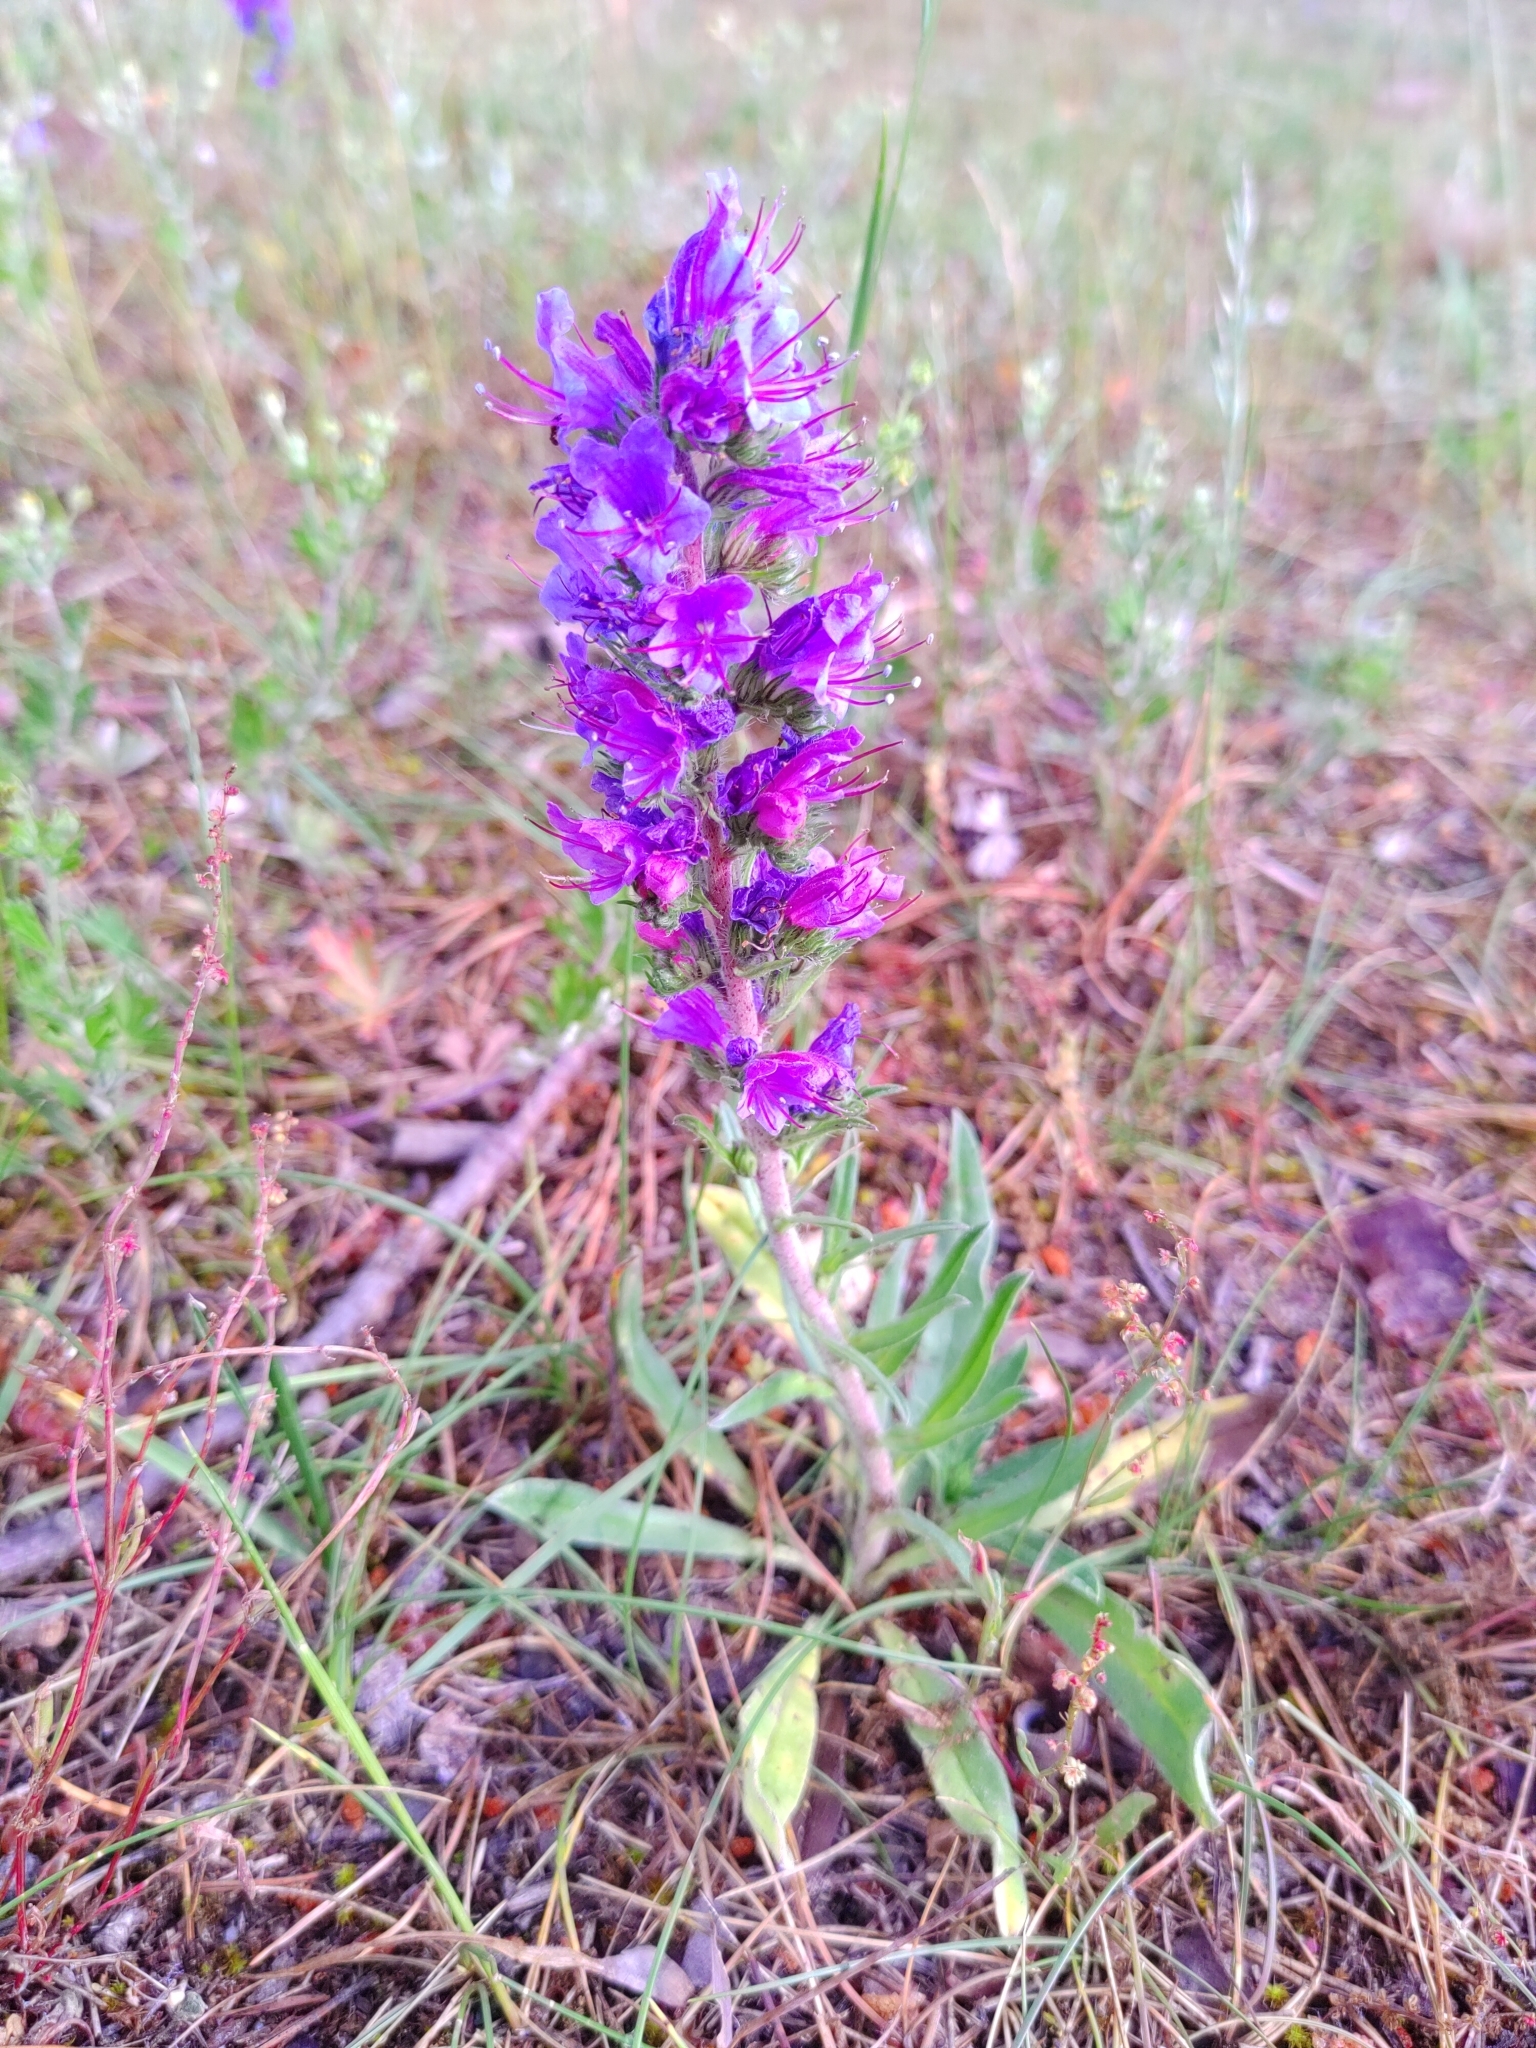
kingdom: Plantae
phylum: Tracheophyta
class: Magnoliopsida
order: Boraginales
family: Boraginaceae
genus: Echium
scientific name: Echium vulgare
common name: Common viper's bugloss
